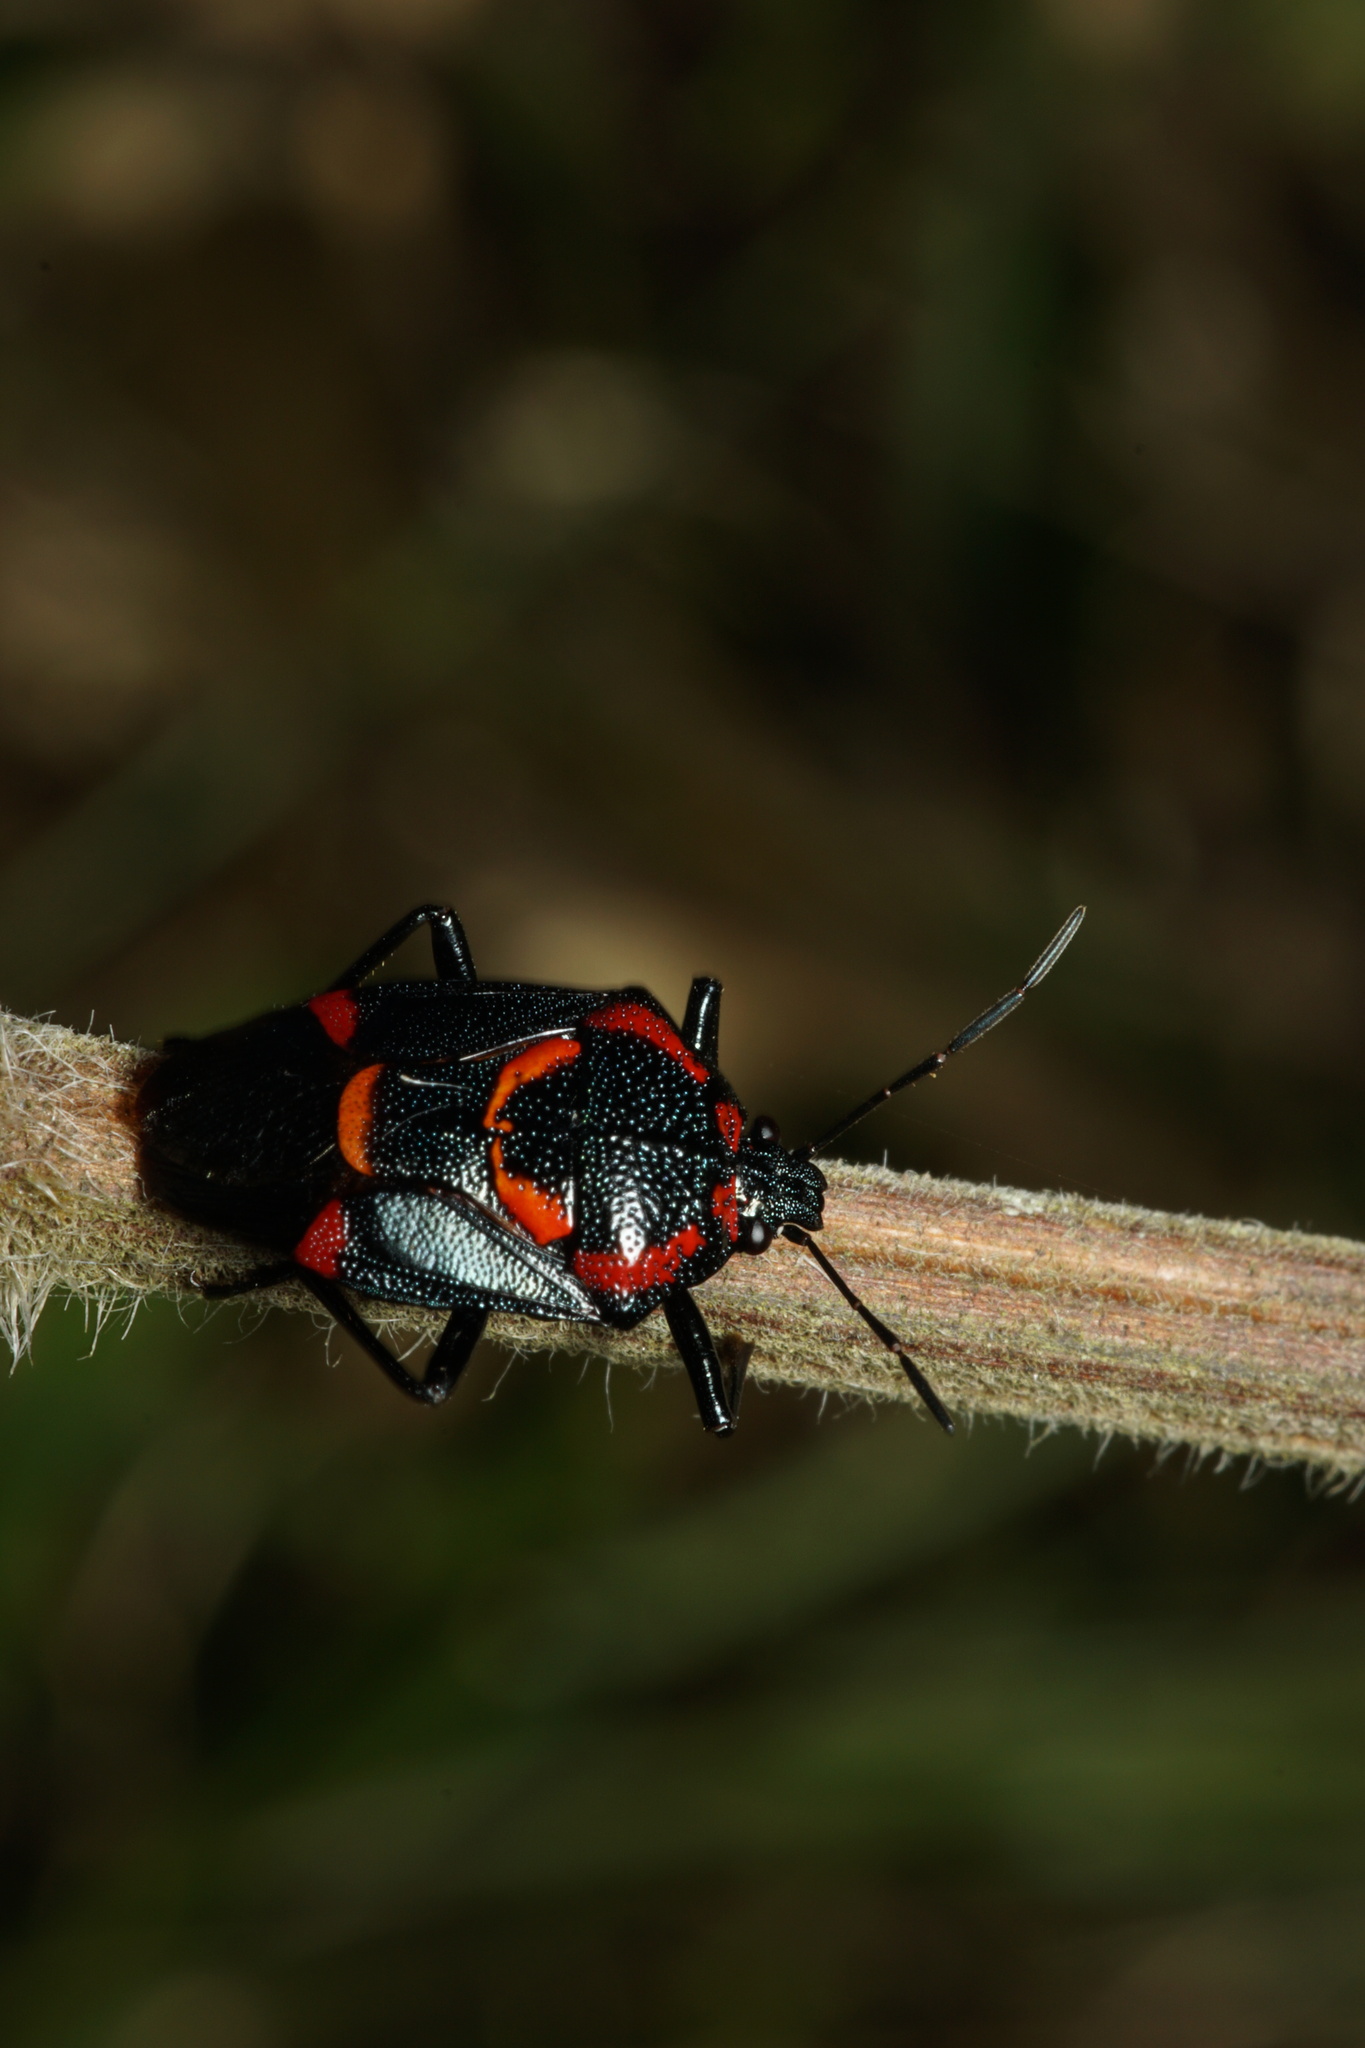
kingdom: Animalia
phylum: Arthropoda
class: Insecta
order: Hemiptera
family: Pentatomidae
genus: Oplomus
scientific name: Oplomus catena
